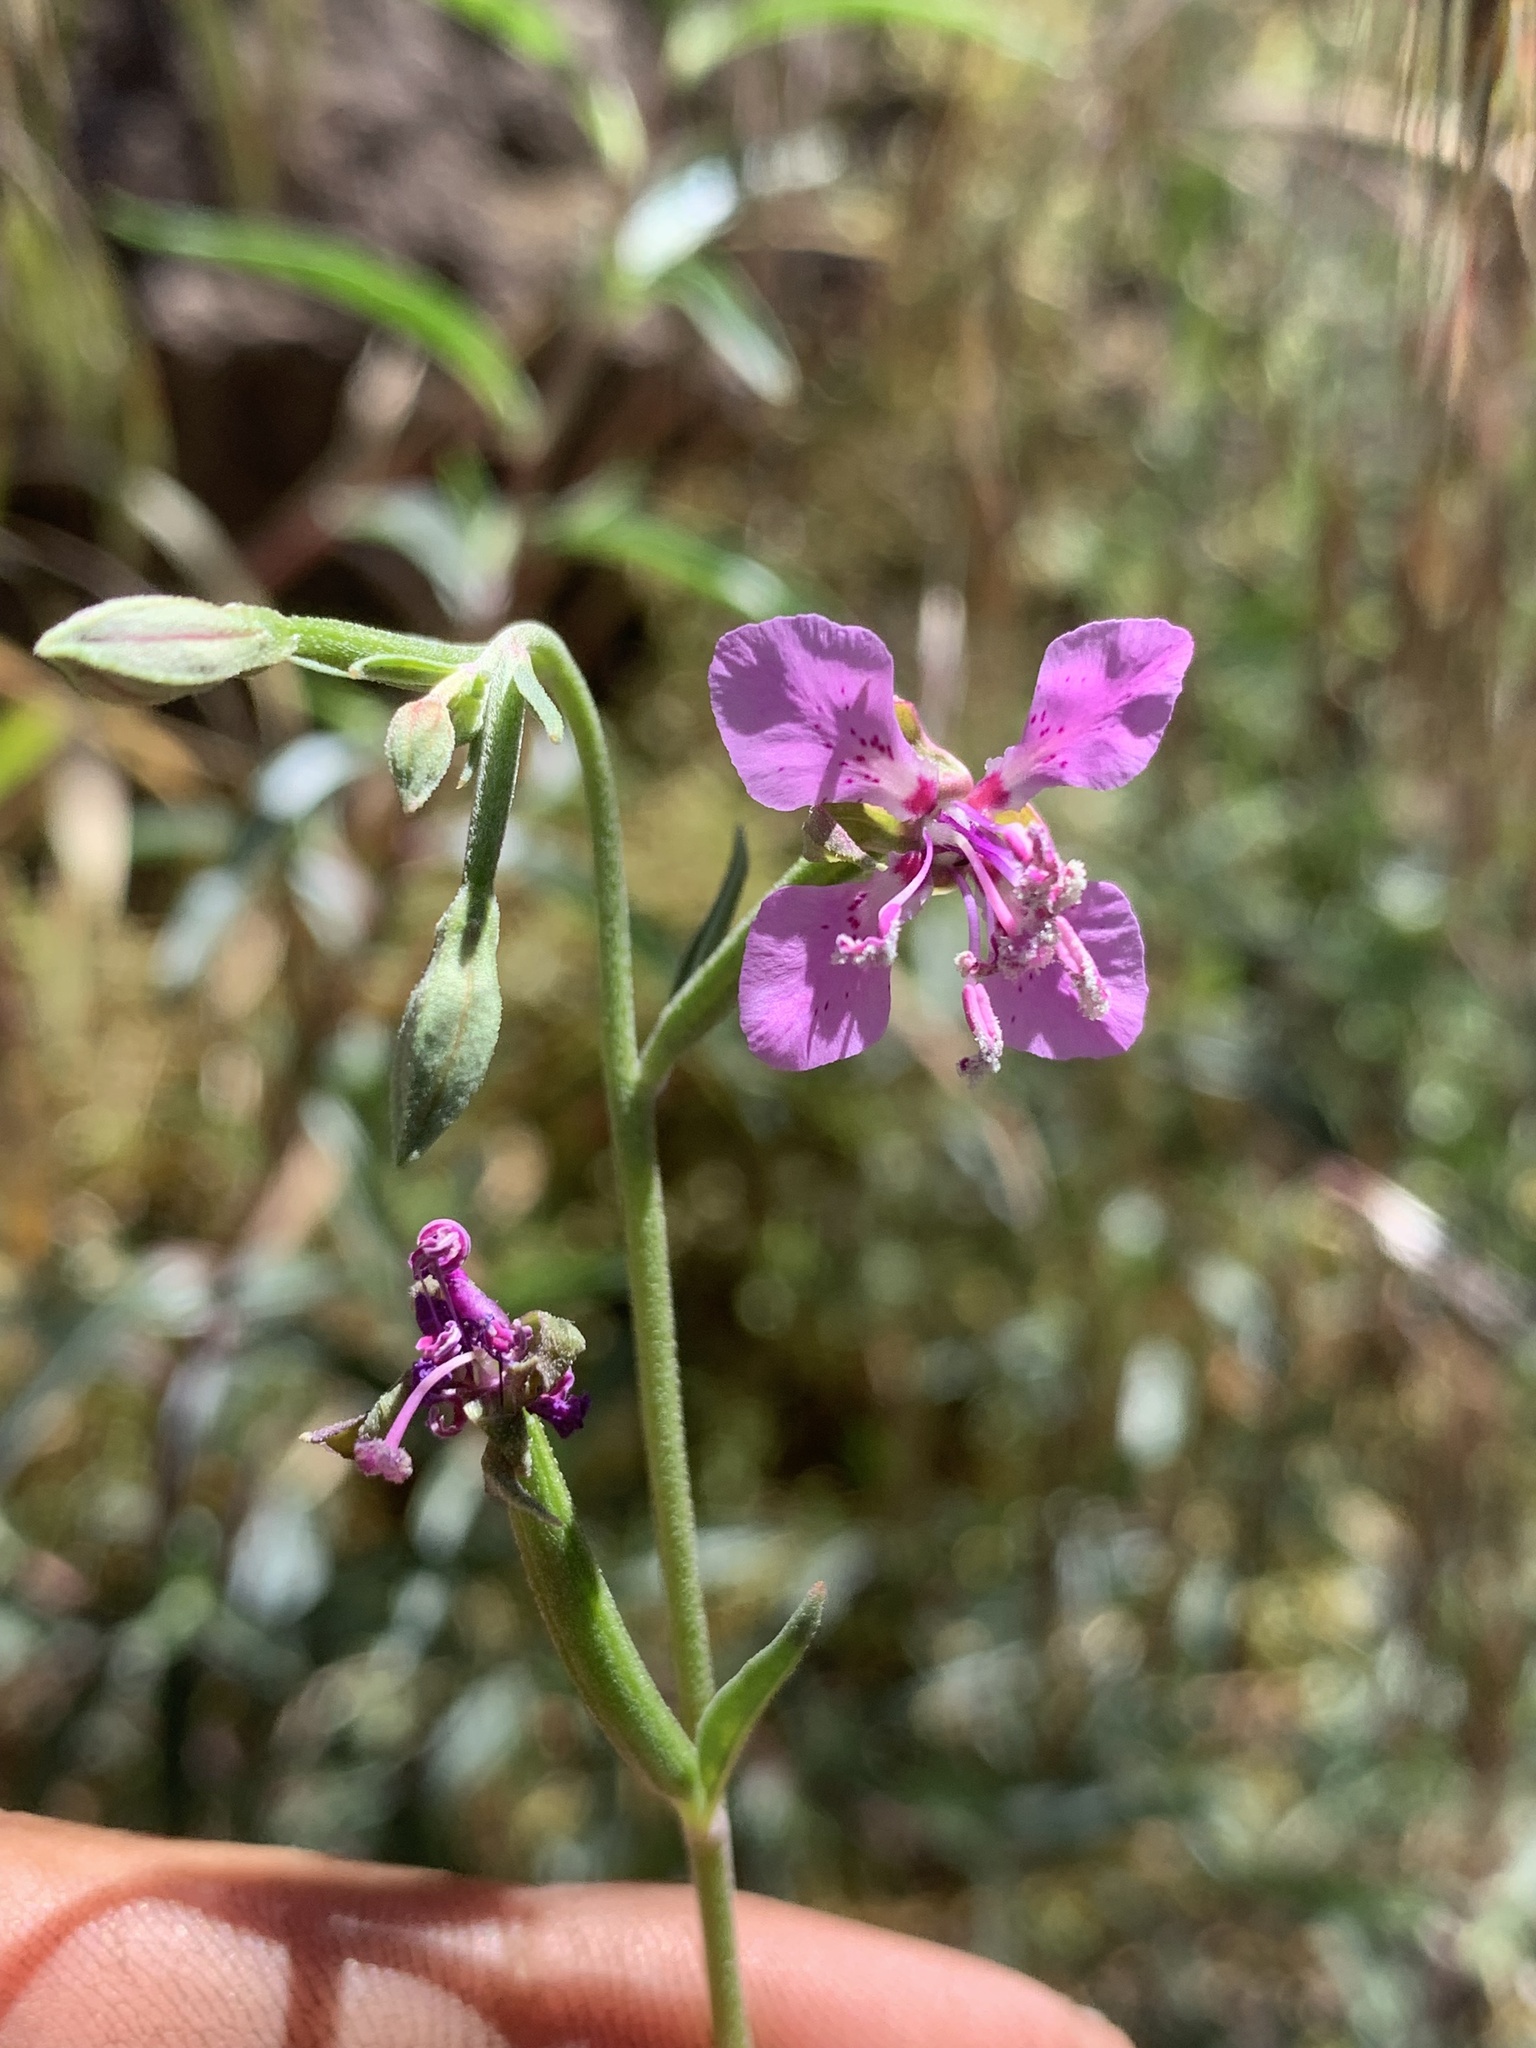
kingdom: Plantae
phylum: Tracheophyta
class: Magnoliopsida
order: Myrtales
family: Onagraceae
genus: Clarkia
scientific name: Clarkia rhomboidea
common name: Broadleaf clarkia
